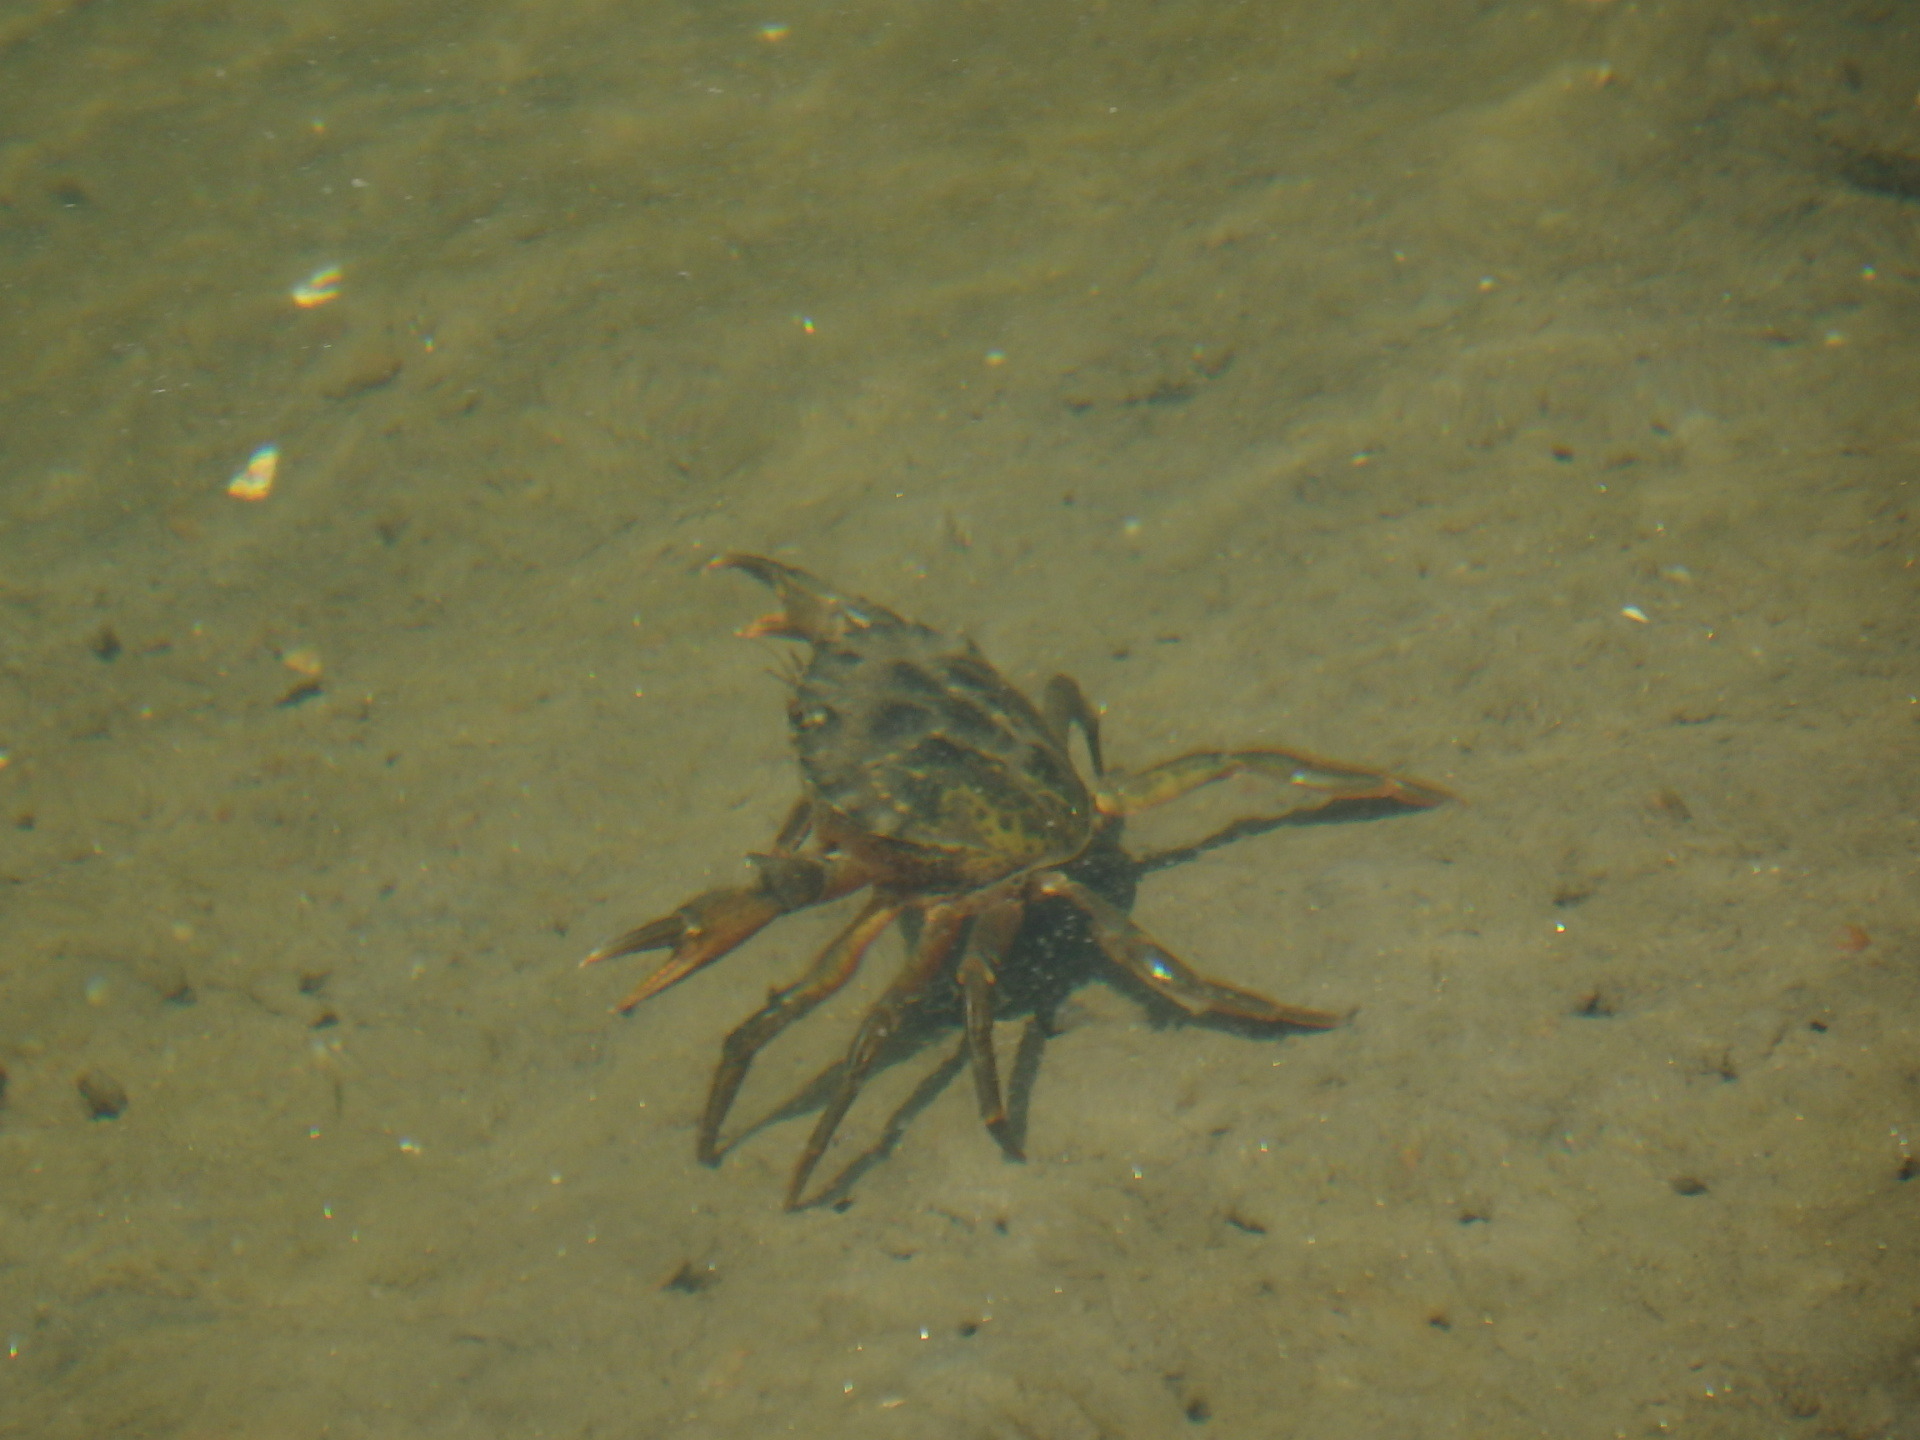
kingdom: Animalia
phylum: Arthropoda
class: Malacostraca
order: Decapoda
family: Carcinidae
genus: Carcinus
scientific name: Carcinus maenas
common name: European green crab
